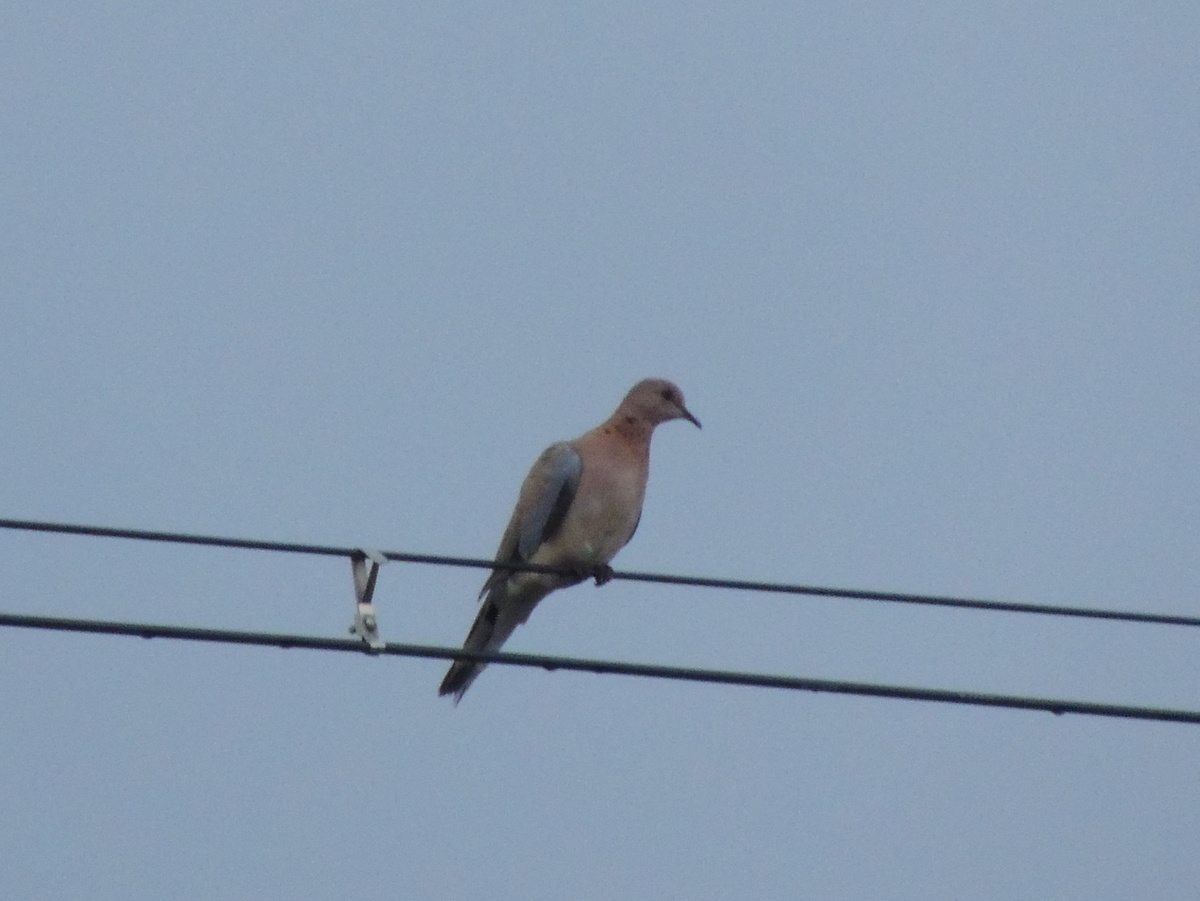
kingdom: Animalia
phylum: Chordata
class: Aves
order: Columbiformes
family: Columbidae
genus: Spilopelia
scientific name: Spilopelia senegalensis
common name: Laughing dove
